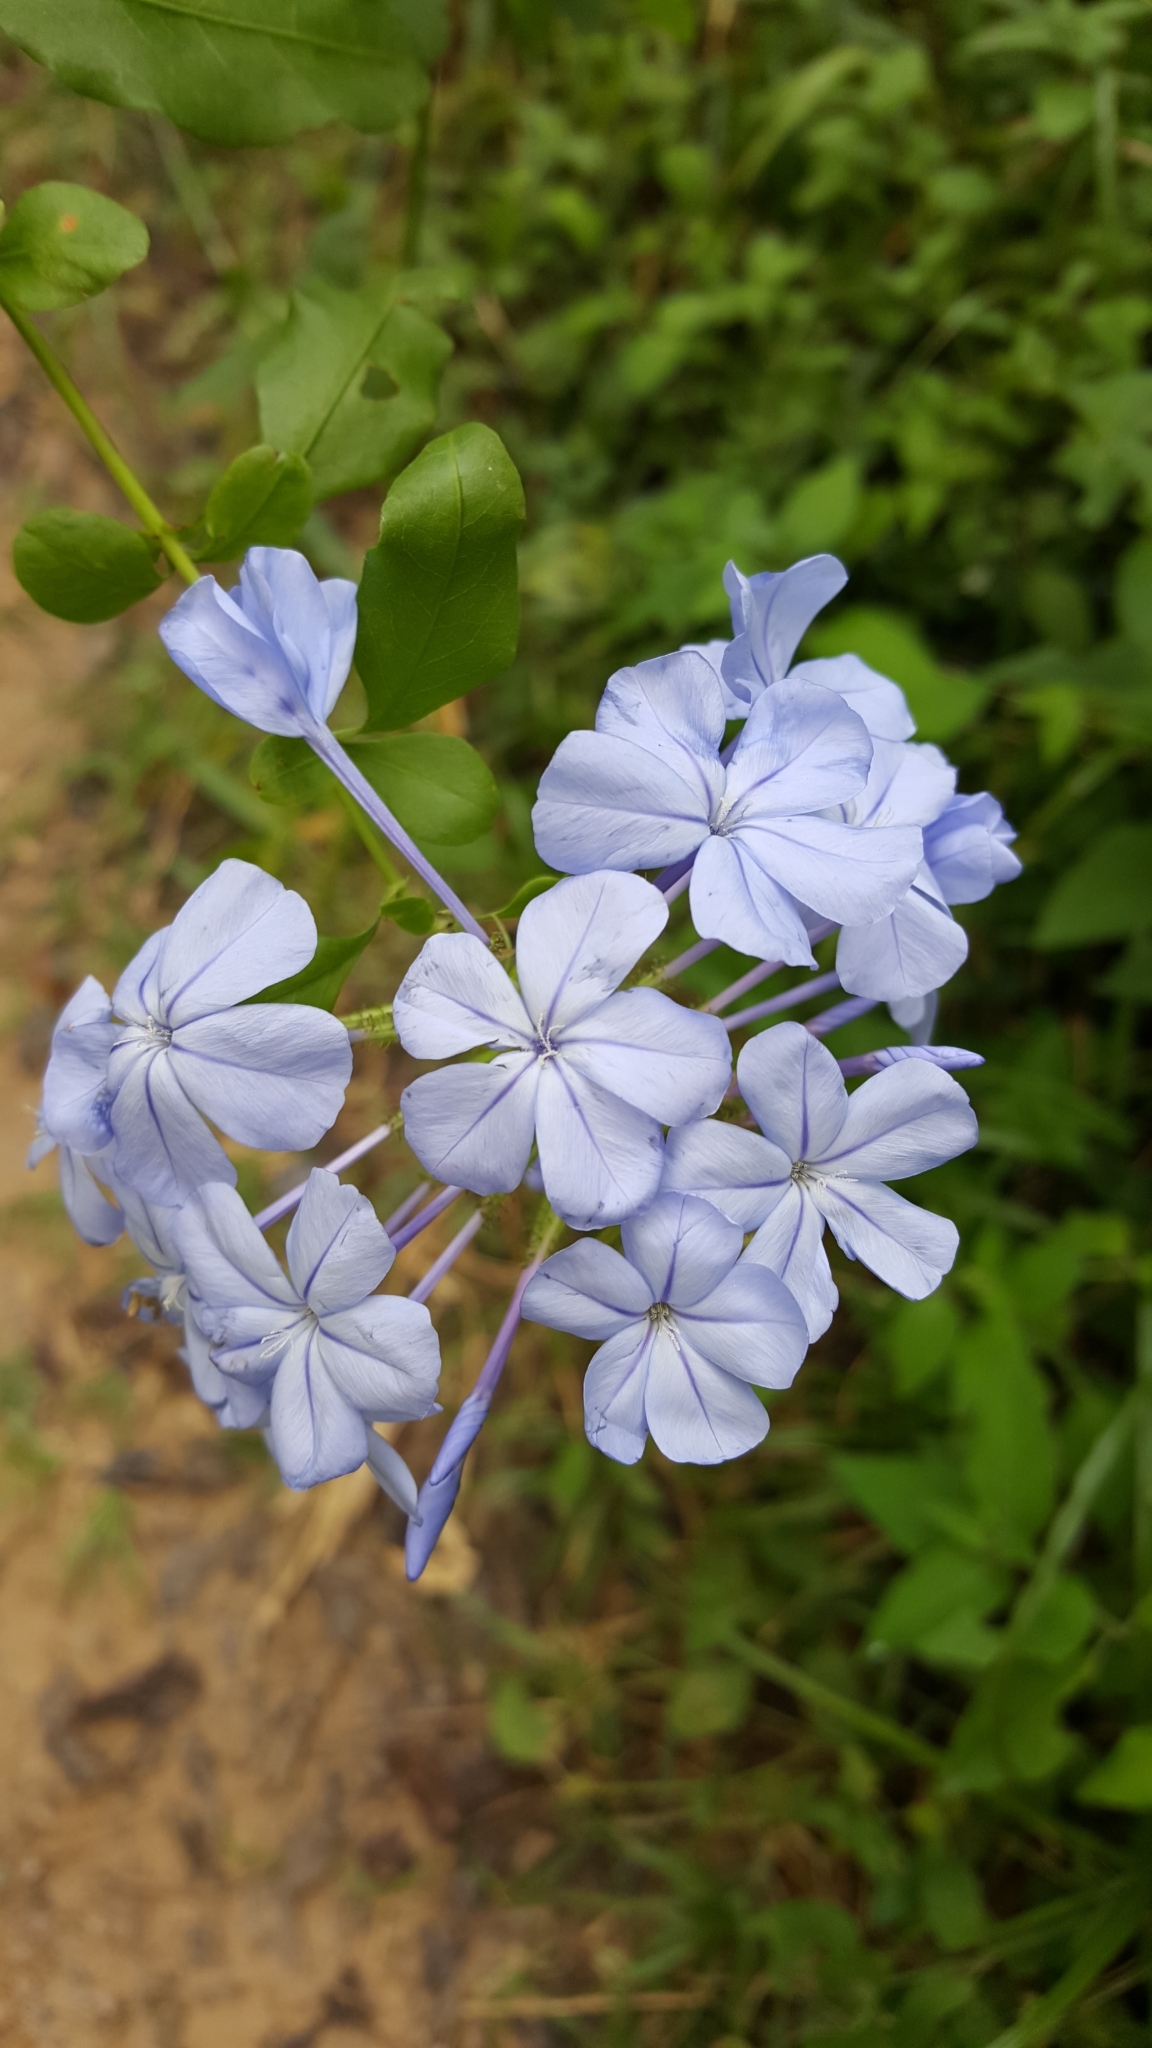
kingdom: Plantae
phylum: Tracheophyta
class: Magnoliopsida
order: Caryophyllales
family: Plumbaginaceae
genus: Plumbago
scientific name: Plumbago auriculata
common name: Cape leadwort
